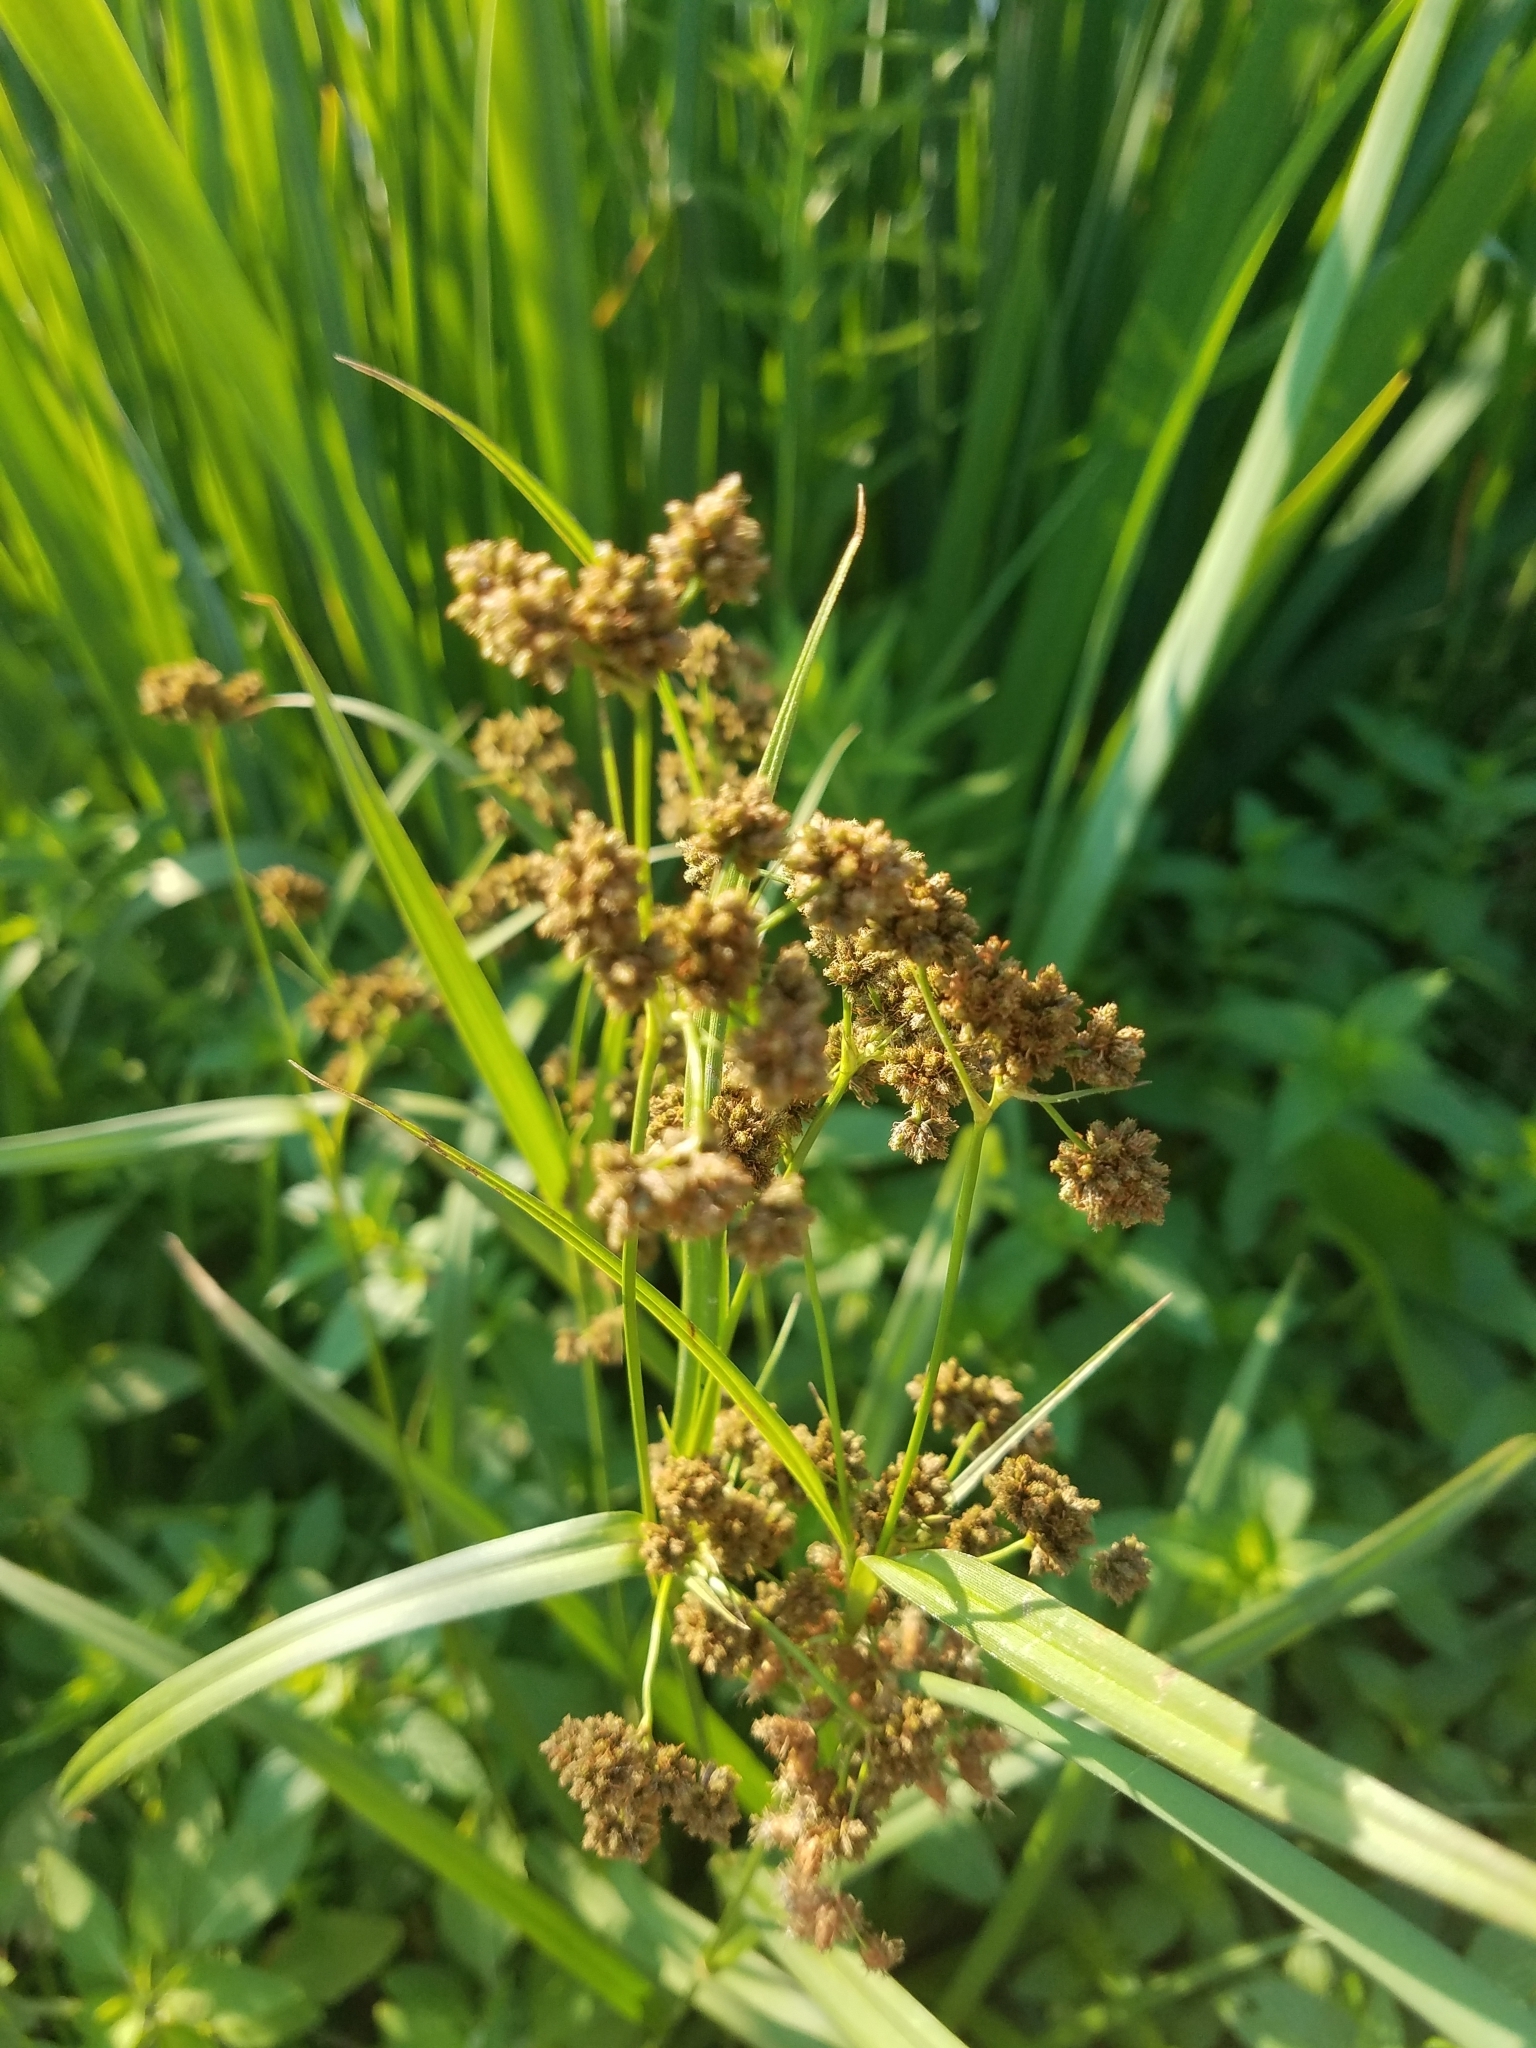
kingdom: Plantae
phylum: Tracheophyta
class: Liliopsida
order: Poales
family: Cyperaceae
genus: Scirpus
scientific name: Scirpus atrovirens
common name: Black bulrush
